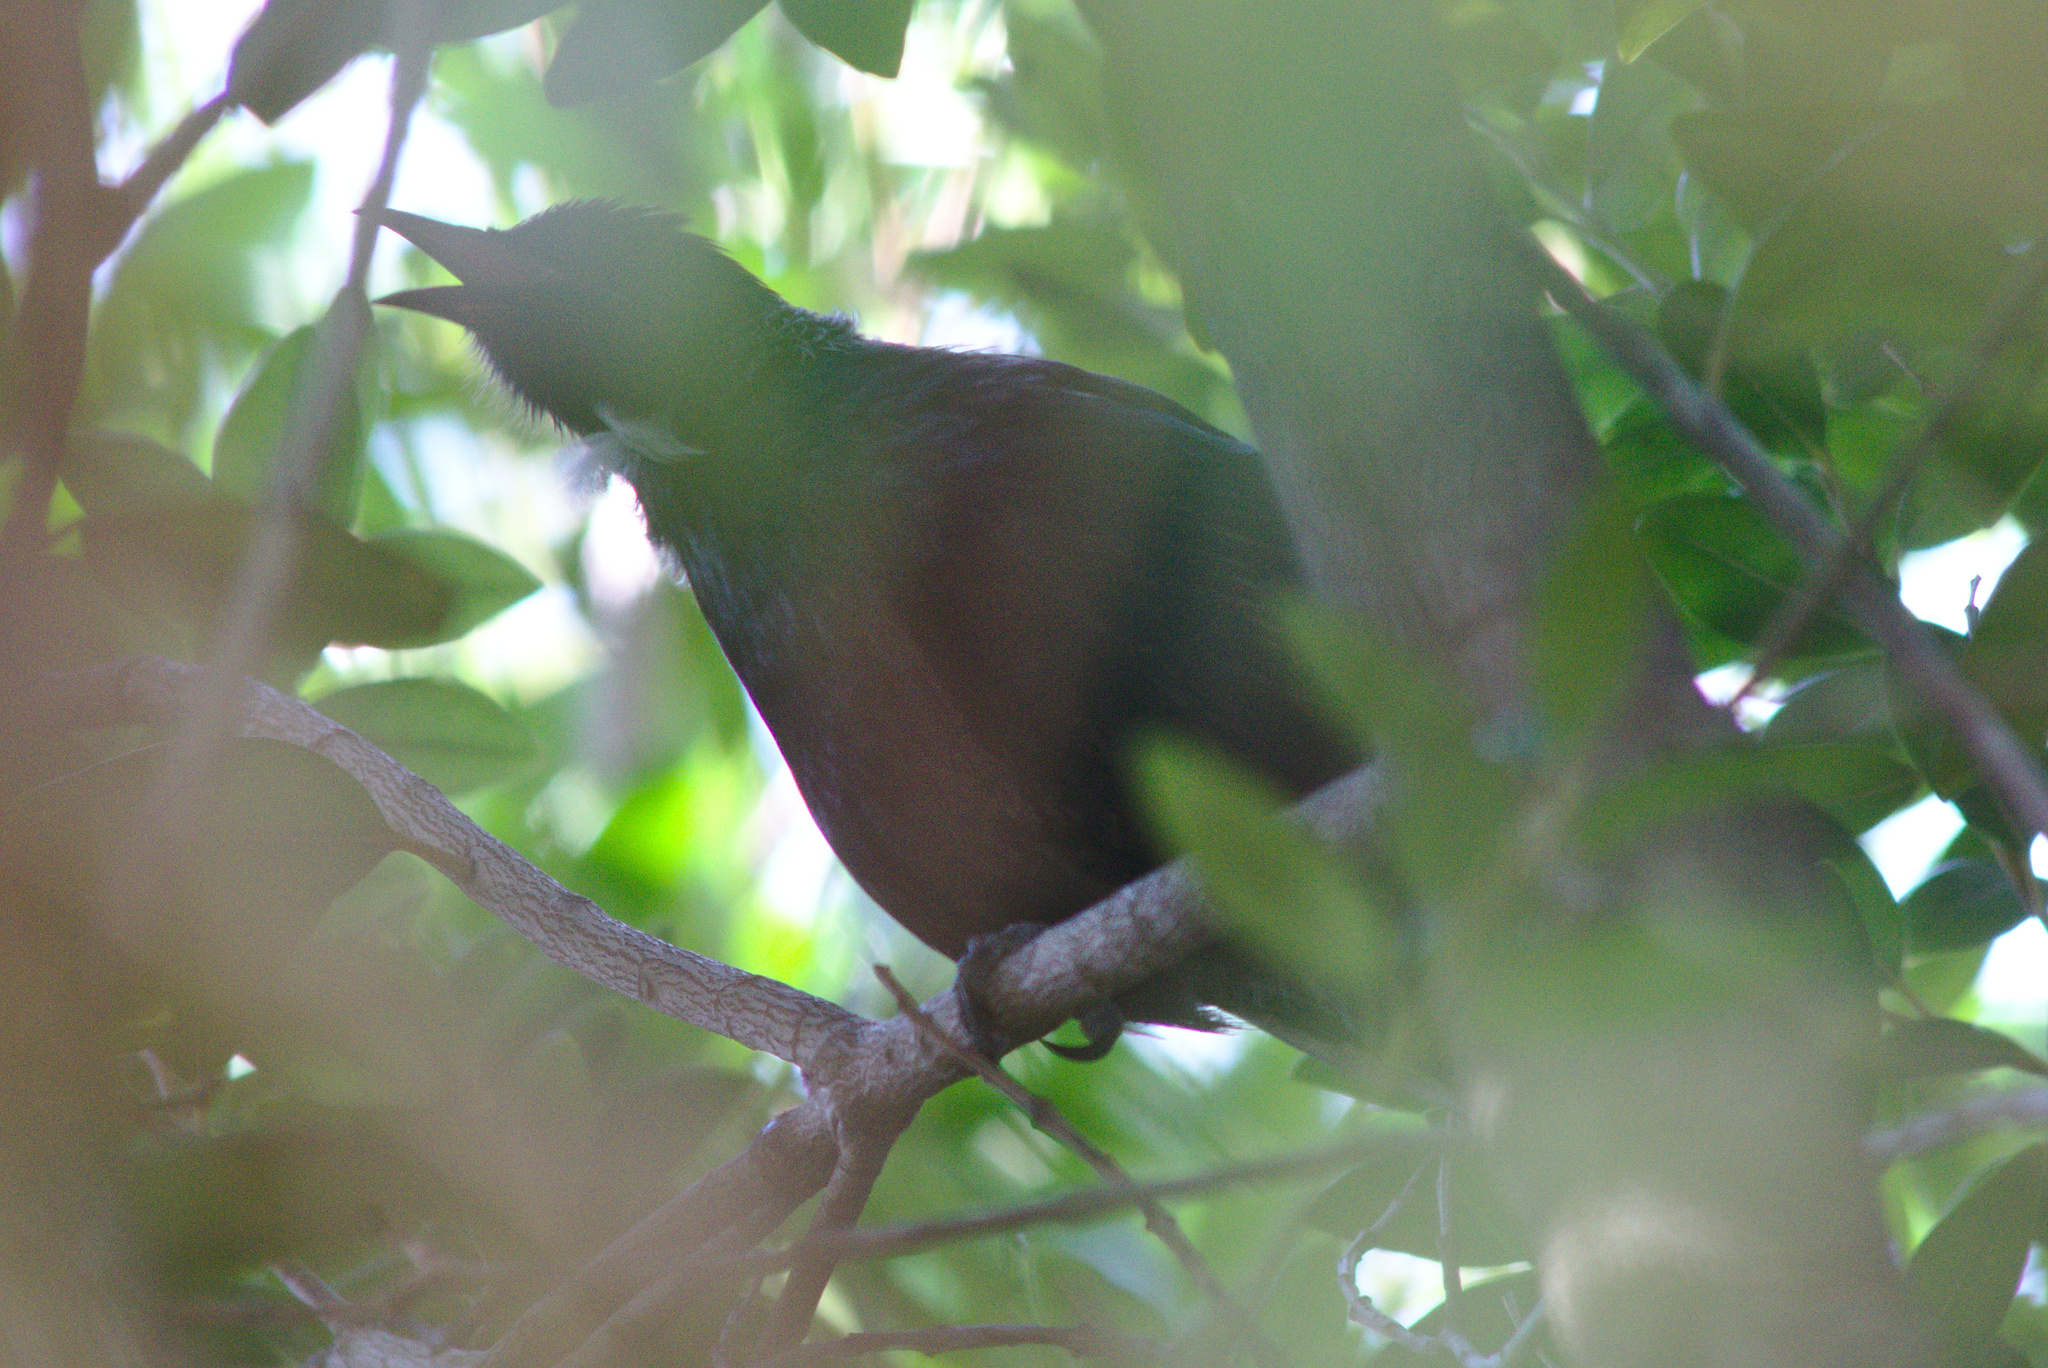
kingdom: Animalia
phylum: Chordata
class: Aves
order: Passeriformes
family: Meliphagidae
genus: Prosthemadera
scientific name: Prosthemadera novaeseelandiae
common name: Tui
